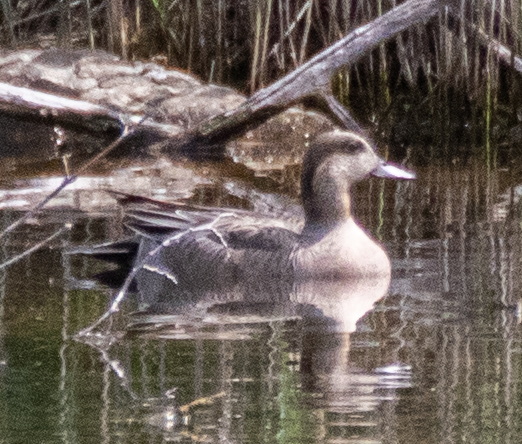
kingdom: Animalia
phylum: Chordata
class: Aves
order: Anseriformes
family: Anatidae
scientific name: Anatidae
